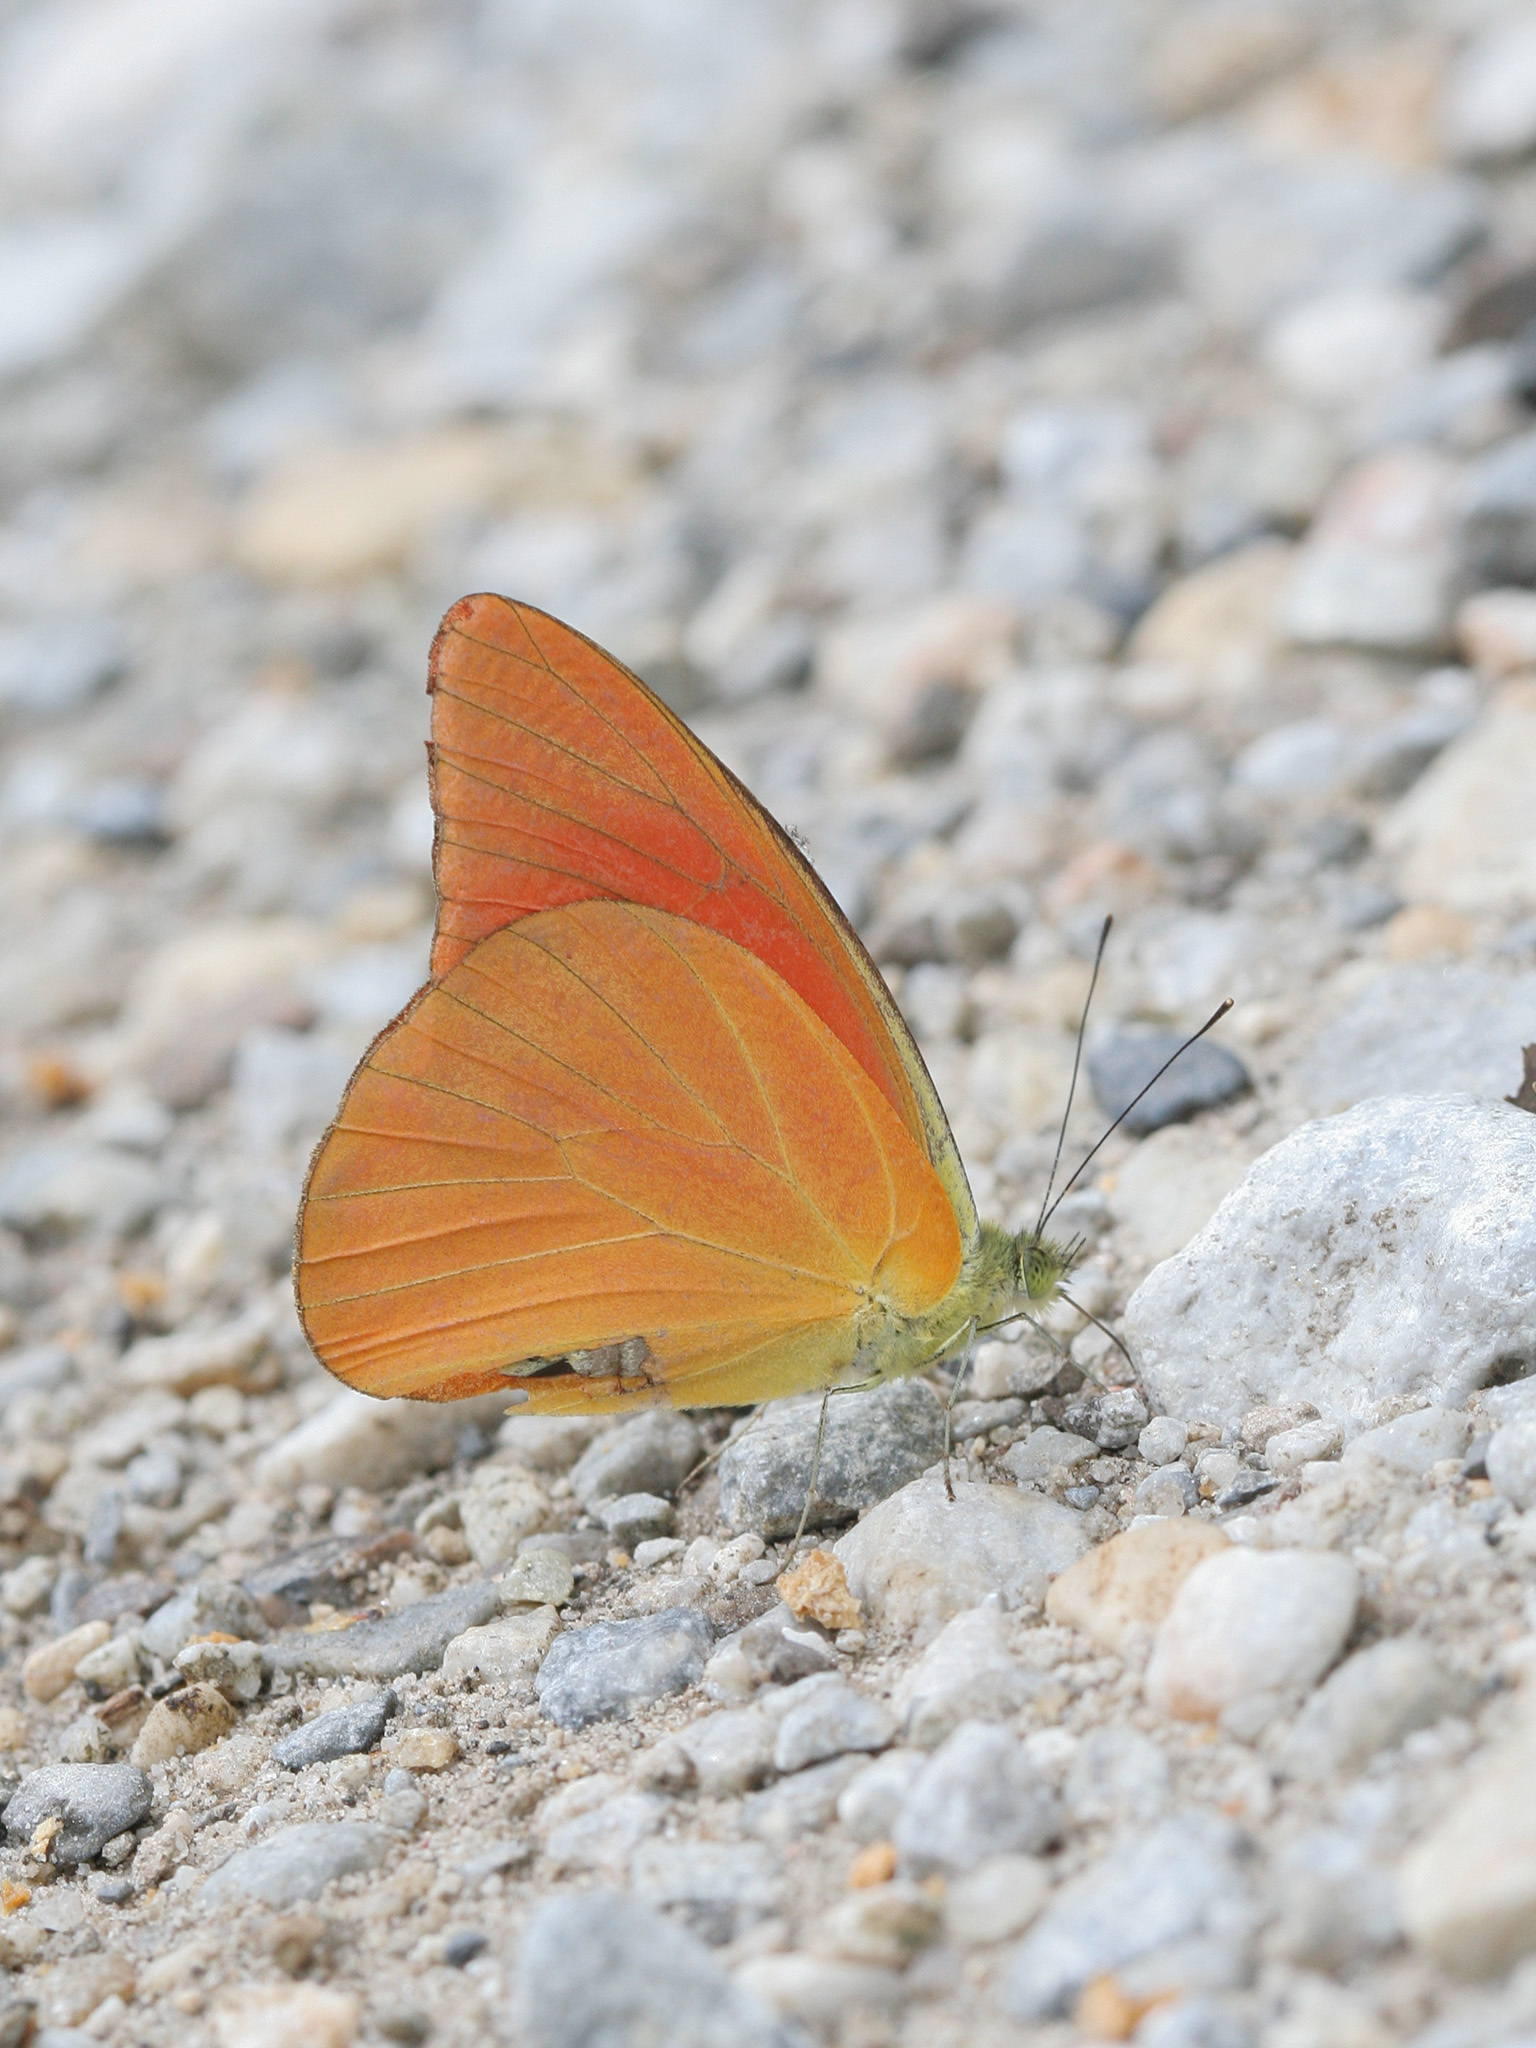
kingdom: Animalia
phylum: Arthropoda
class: Insecta
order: Lepidoptera
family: Pieridae
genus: Appias
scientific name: Appias nero
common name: Orange albatross
